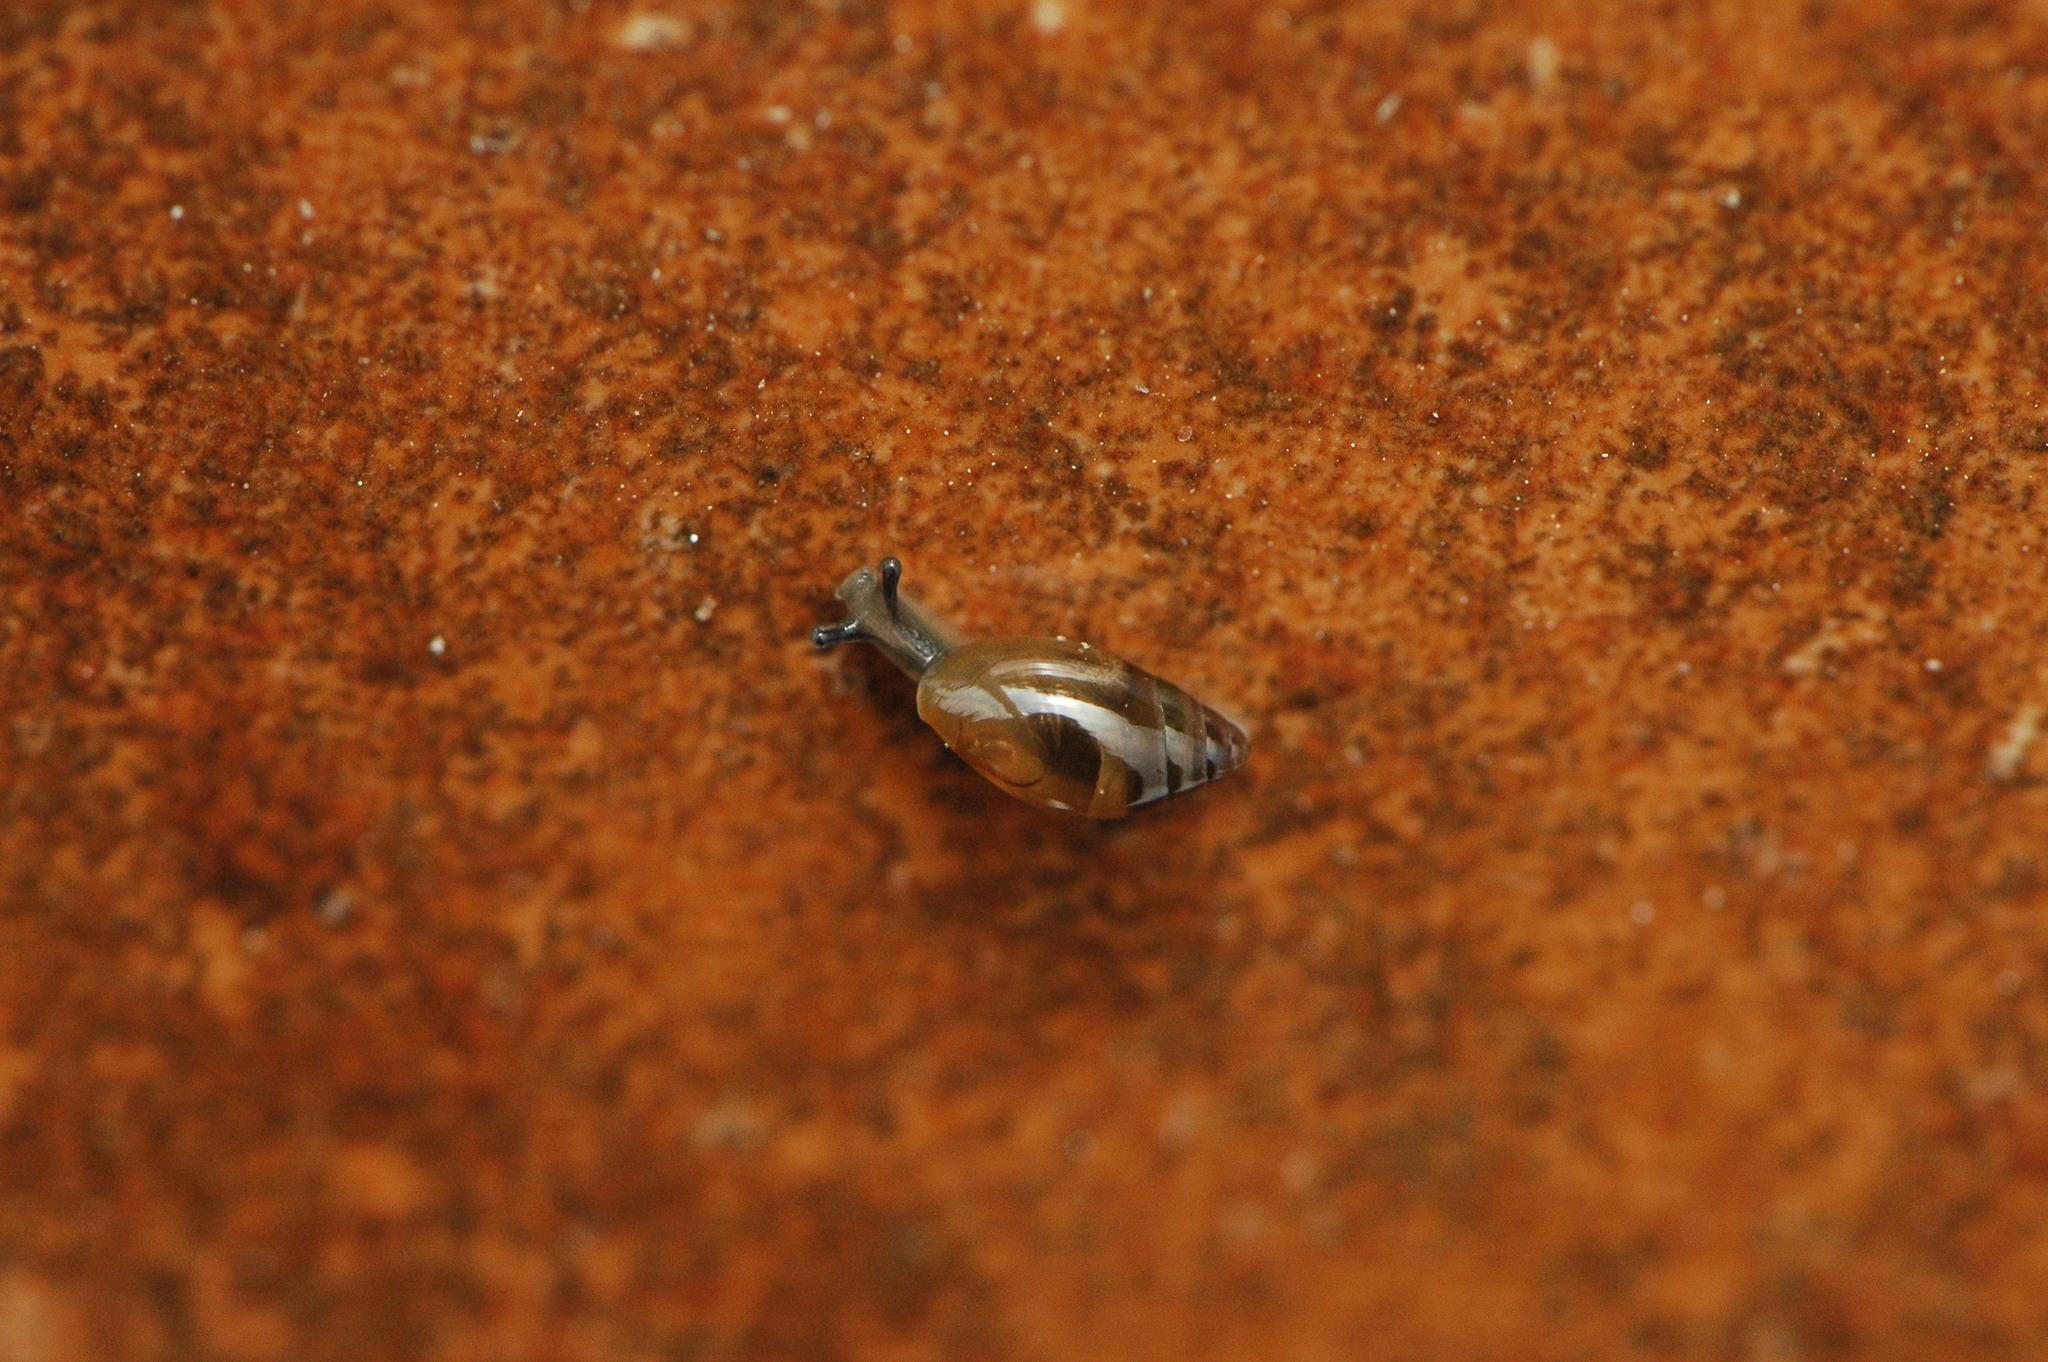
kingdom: Animalia
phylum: Mollusca
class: Gastropoda
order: Stylommatophora
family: Ferussaciidae
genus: Ferussacia
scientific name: Ferussacia folliculum
